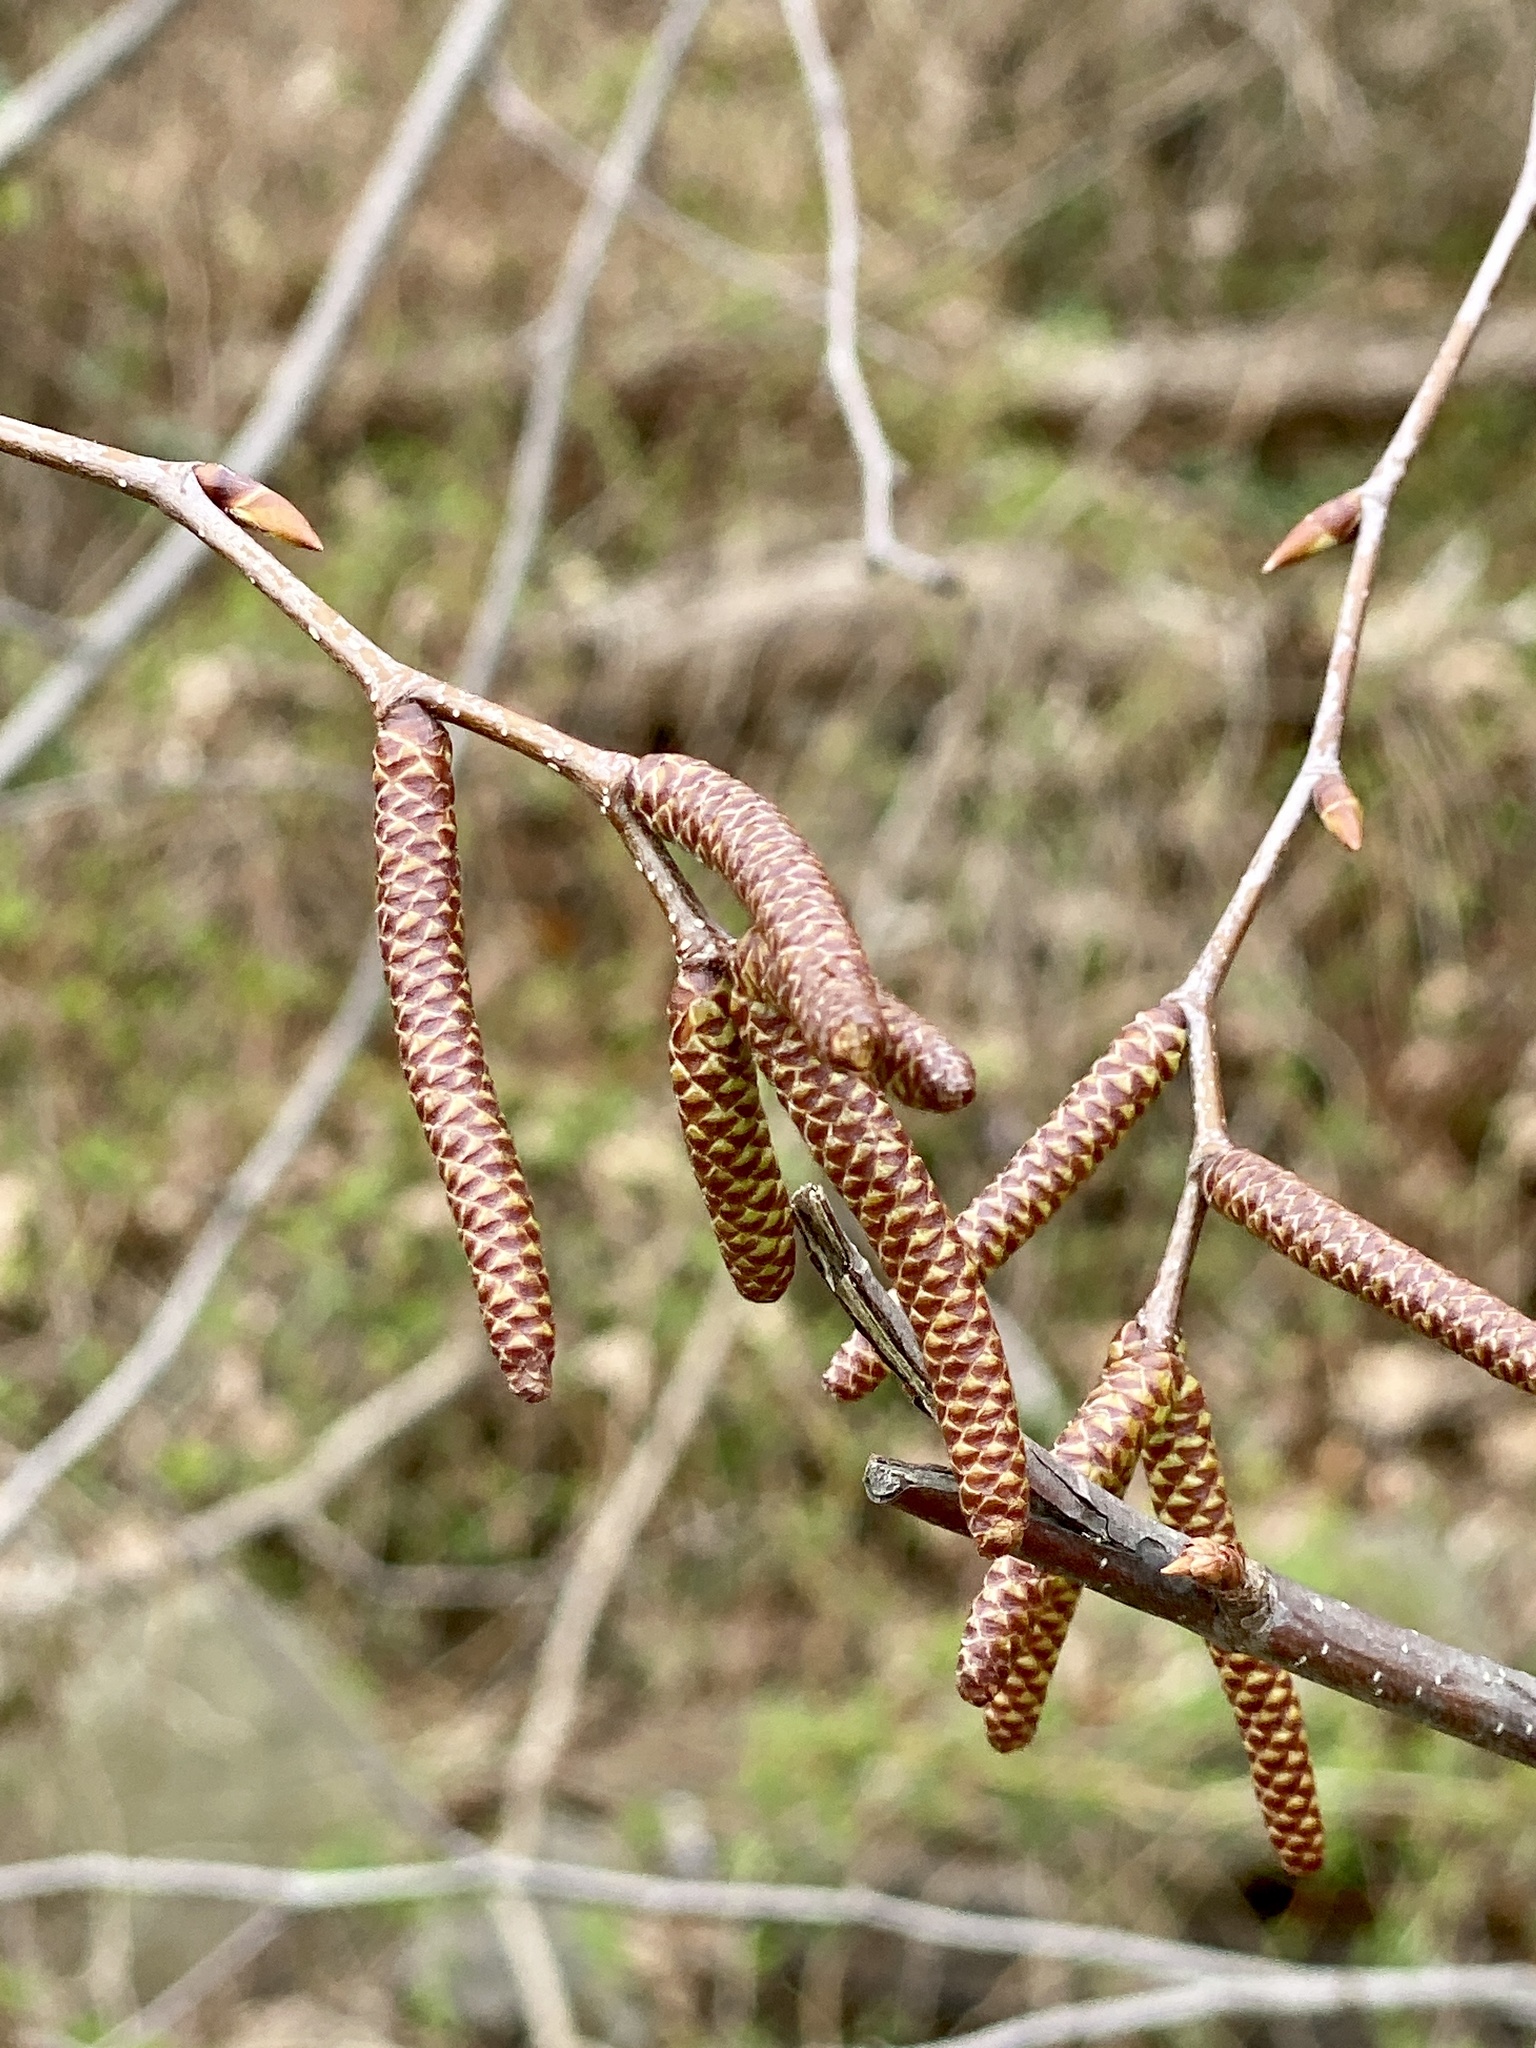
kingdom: Plantae
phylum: Tracheophyta
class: Magnoliopsida
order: Fagales
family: Betulaceae
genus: Betula
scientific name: Betula lenta
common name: Black birch
